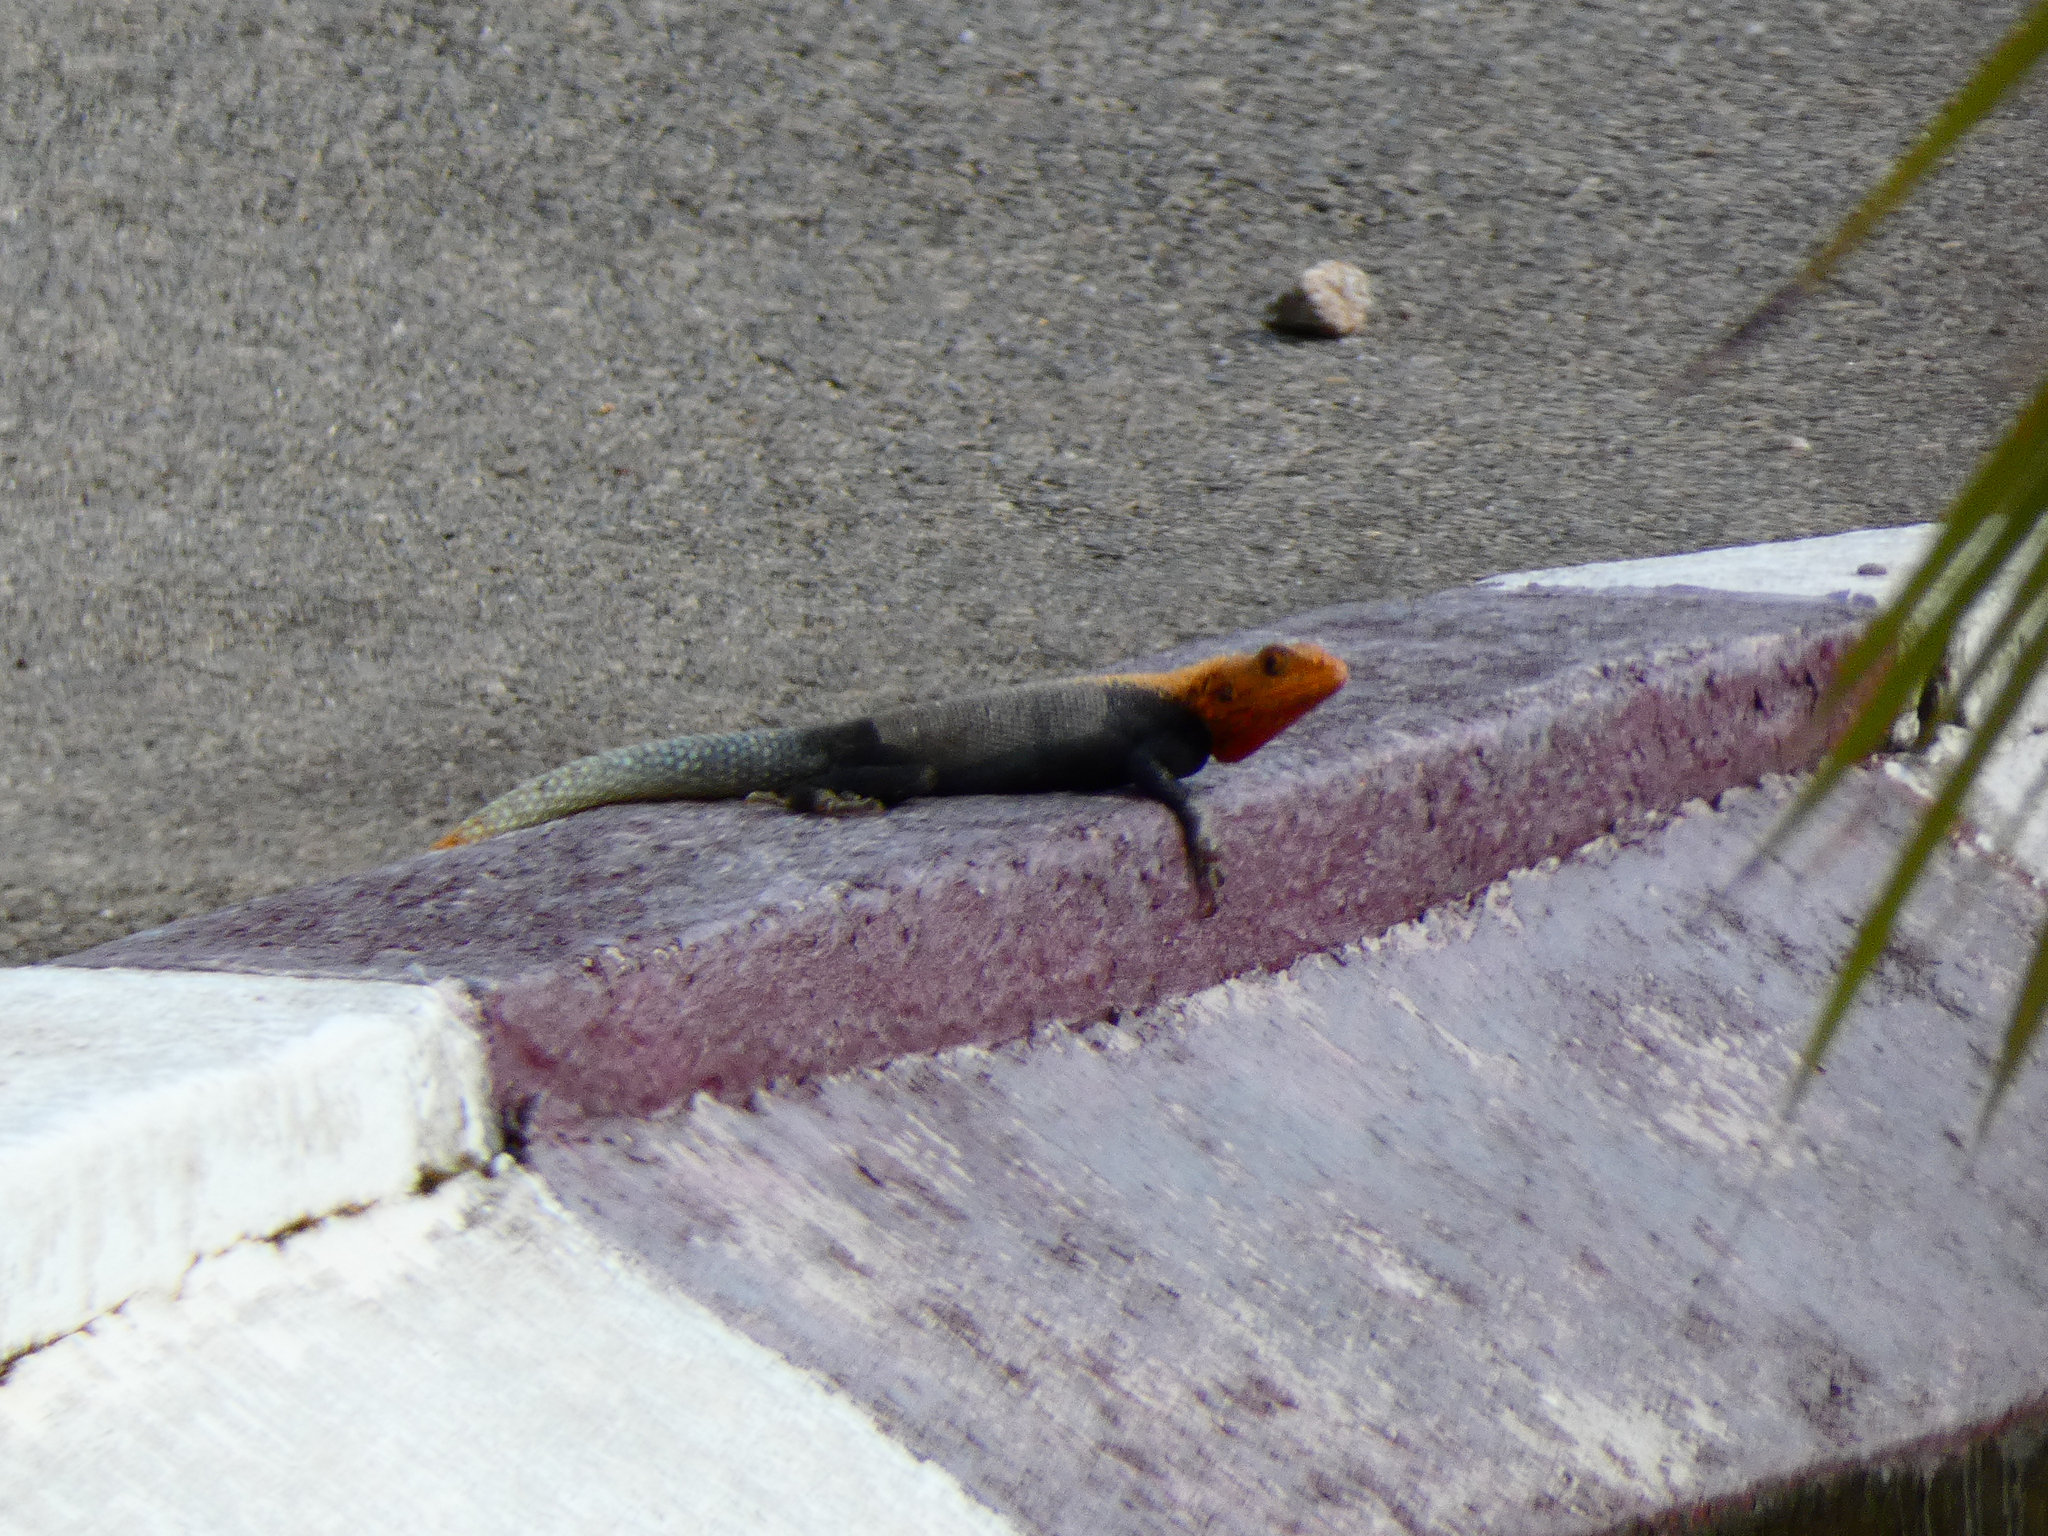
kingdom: Animalia
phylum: Chordata
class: Squamata
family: Agamidae
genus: Agama
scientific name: Agama agama
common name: Common agama
